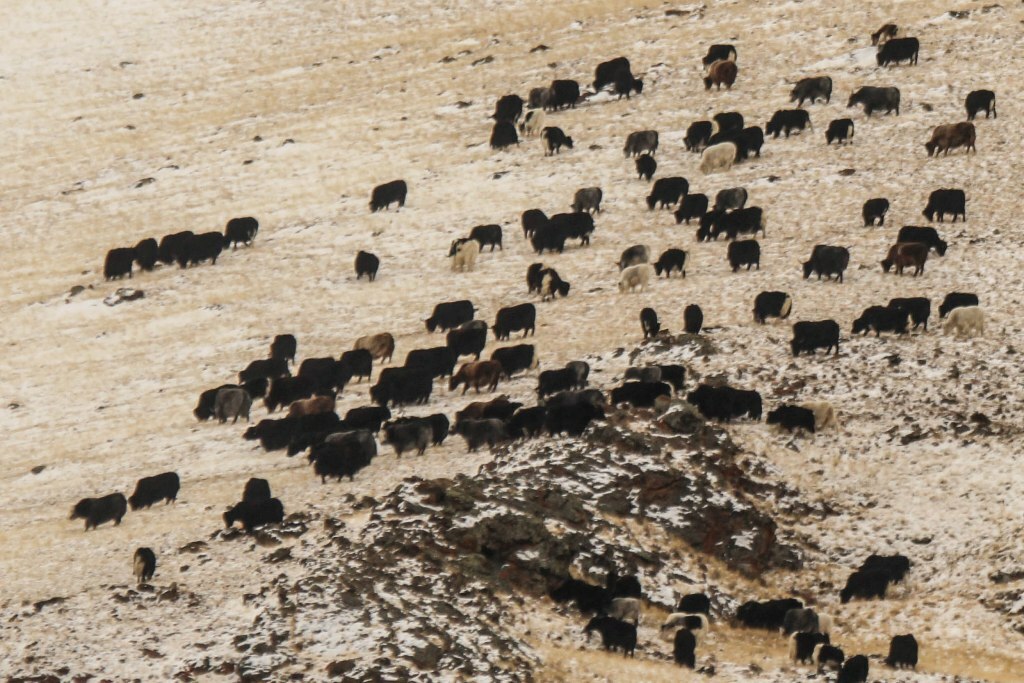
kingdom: Animalia
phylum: Chordata
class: Mammalia
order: Artiodactyla
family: Bovidae
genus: Bos
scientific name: Bos grunniens
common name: Yak
